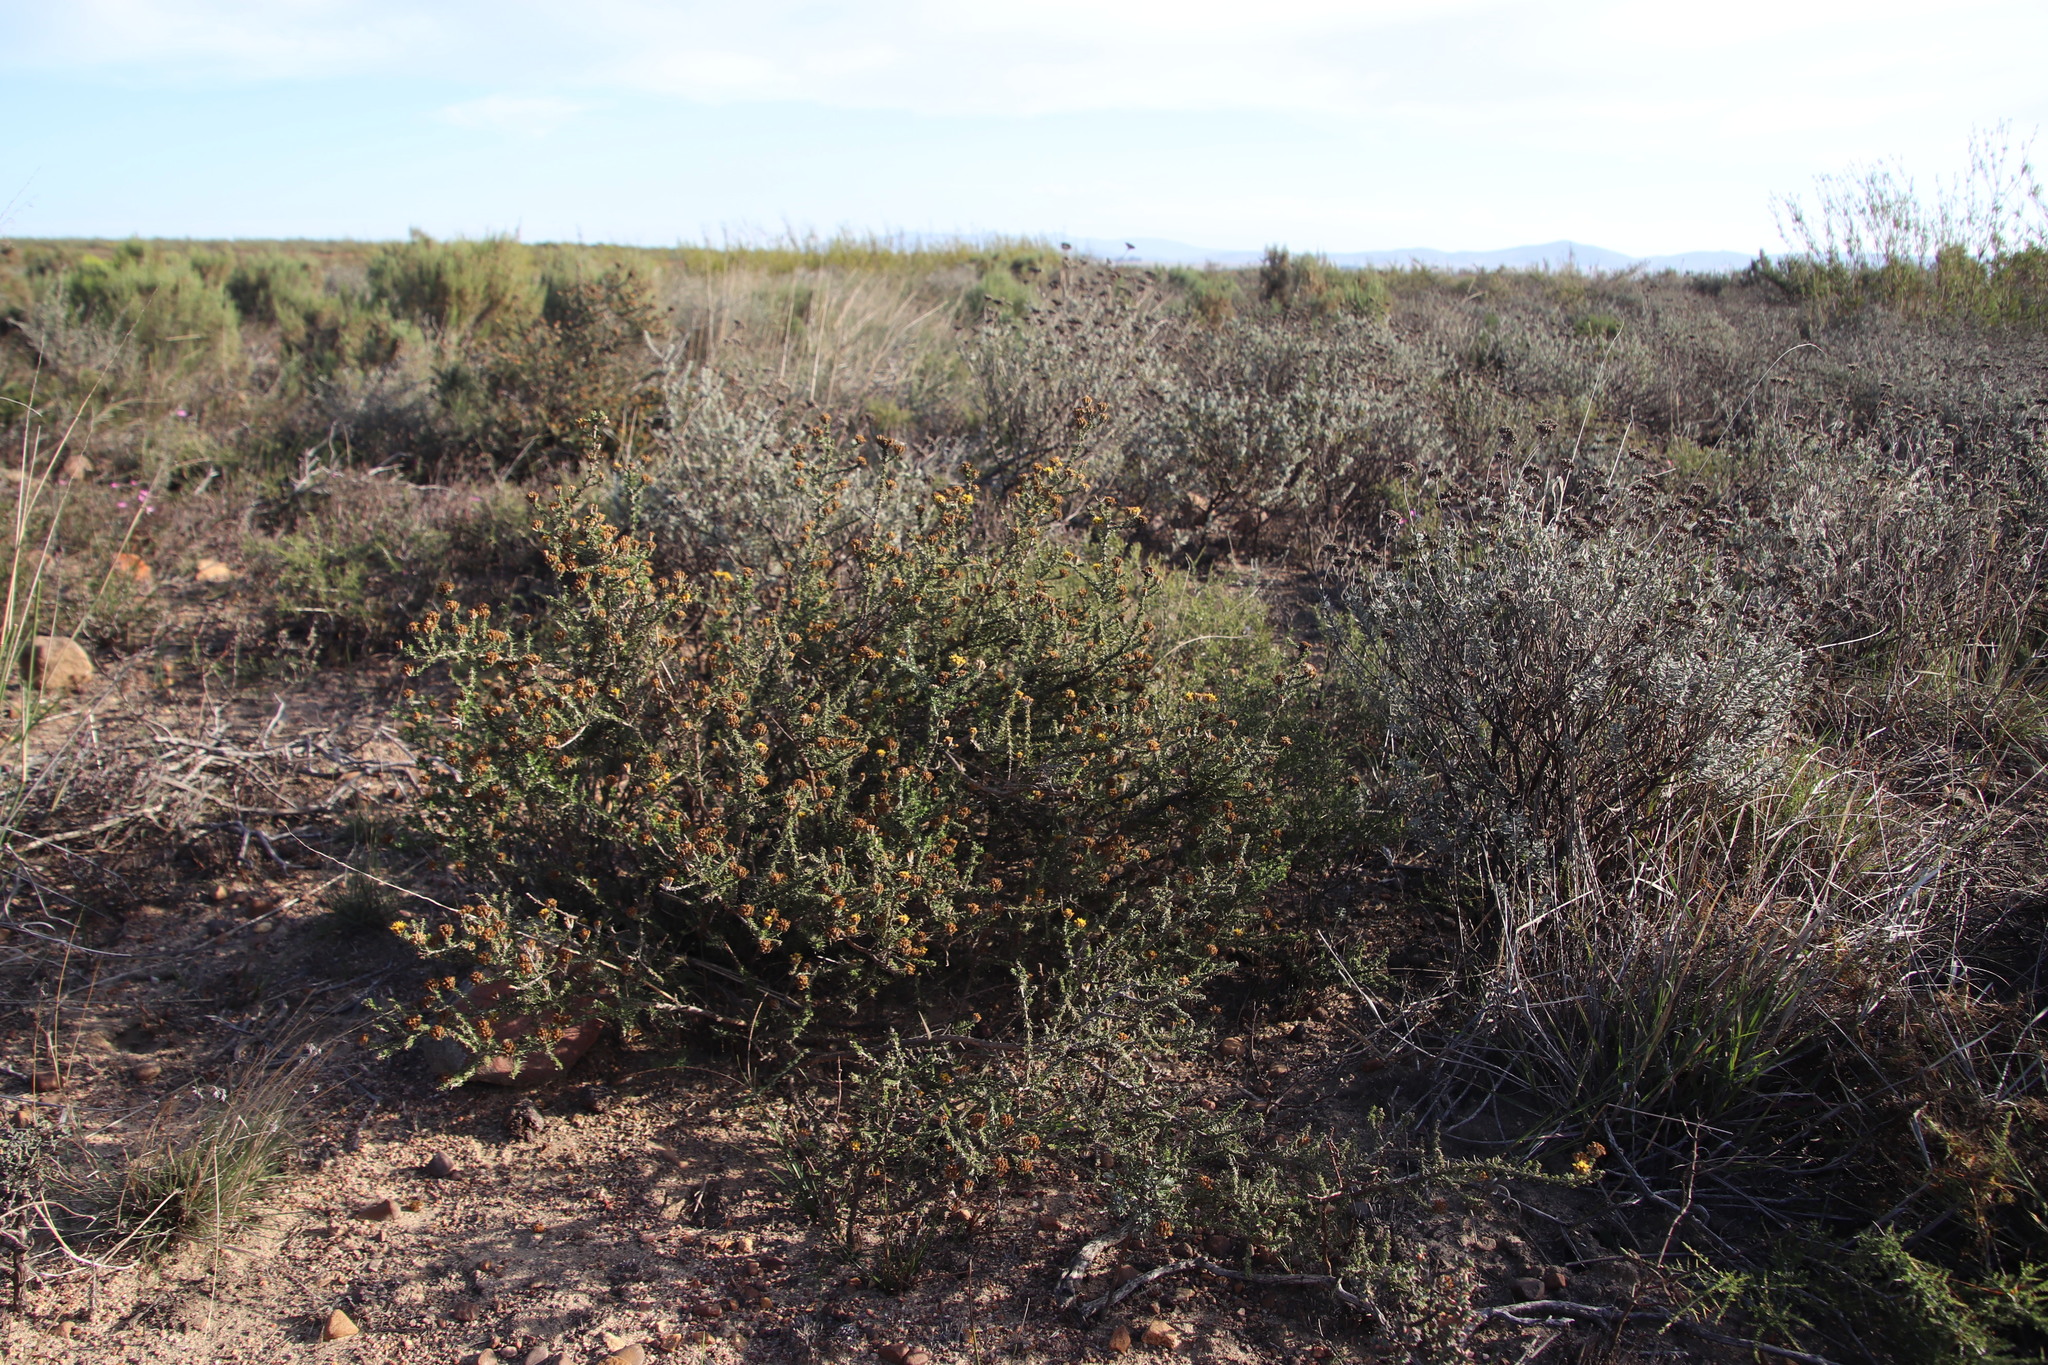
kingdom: Plantae
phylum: Tracheophyta
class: Magnoliopsida
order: Asterales
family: Asteraceae
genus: Metalasia
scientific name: Metalasia octoflora
